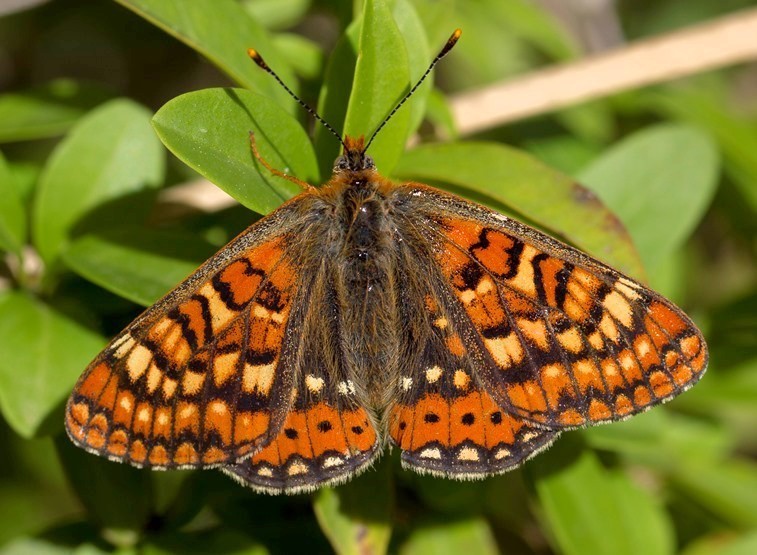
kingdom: Animalia
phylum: Arthropoda
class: Insecta
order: Lepidoptera
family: Nymphalidae
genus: Euphydryas
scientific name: Euphydryas aurinia
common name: Marsh fritillary
